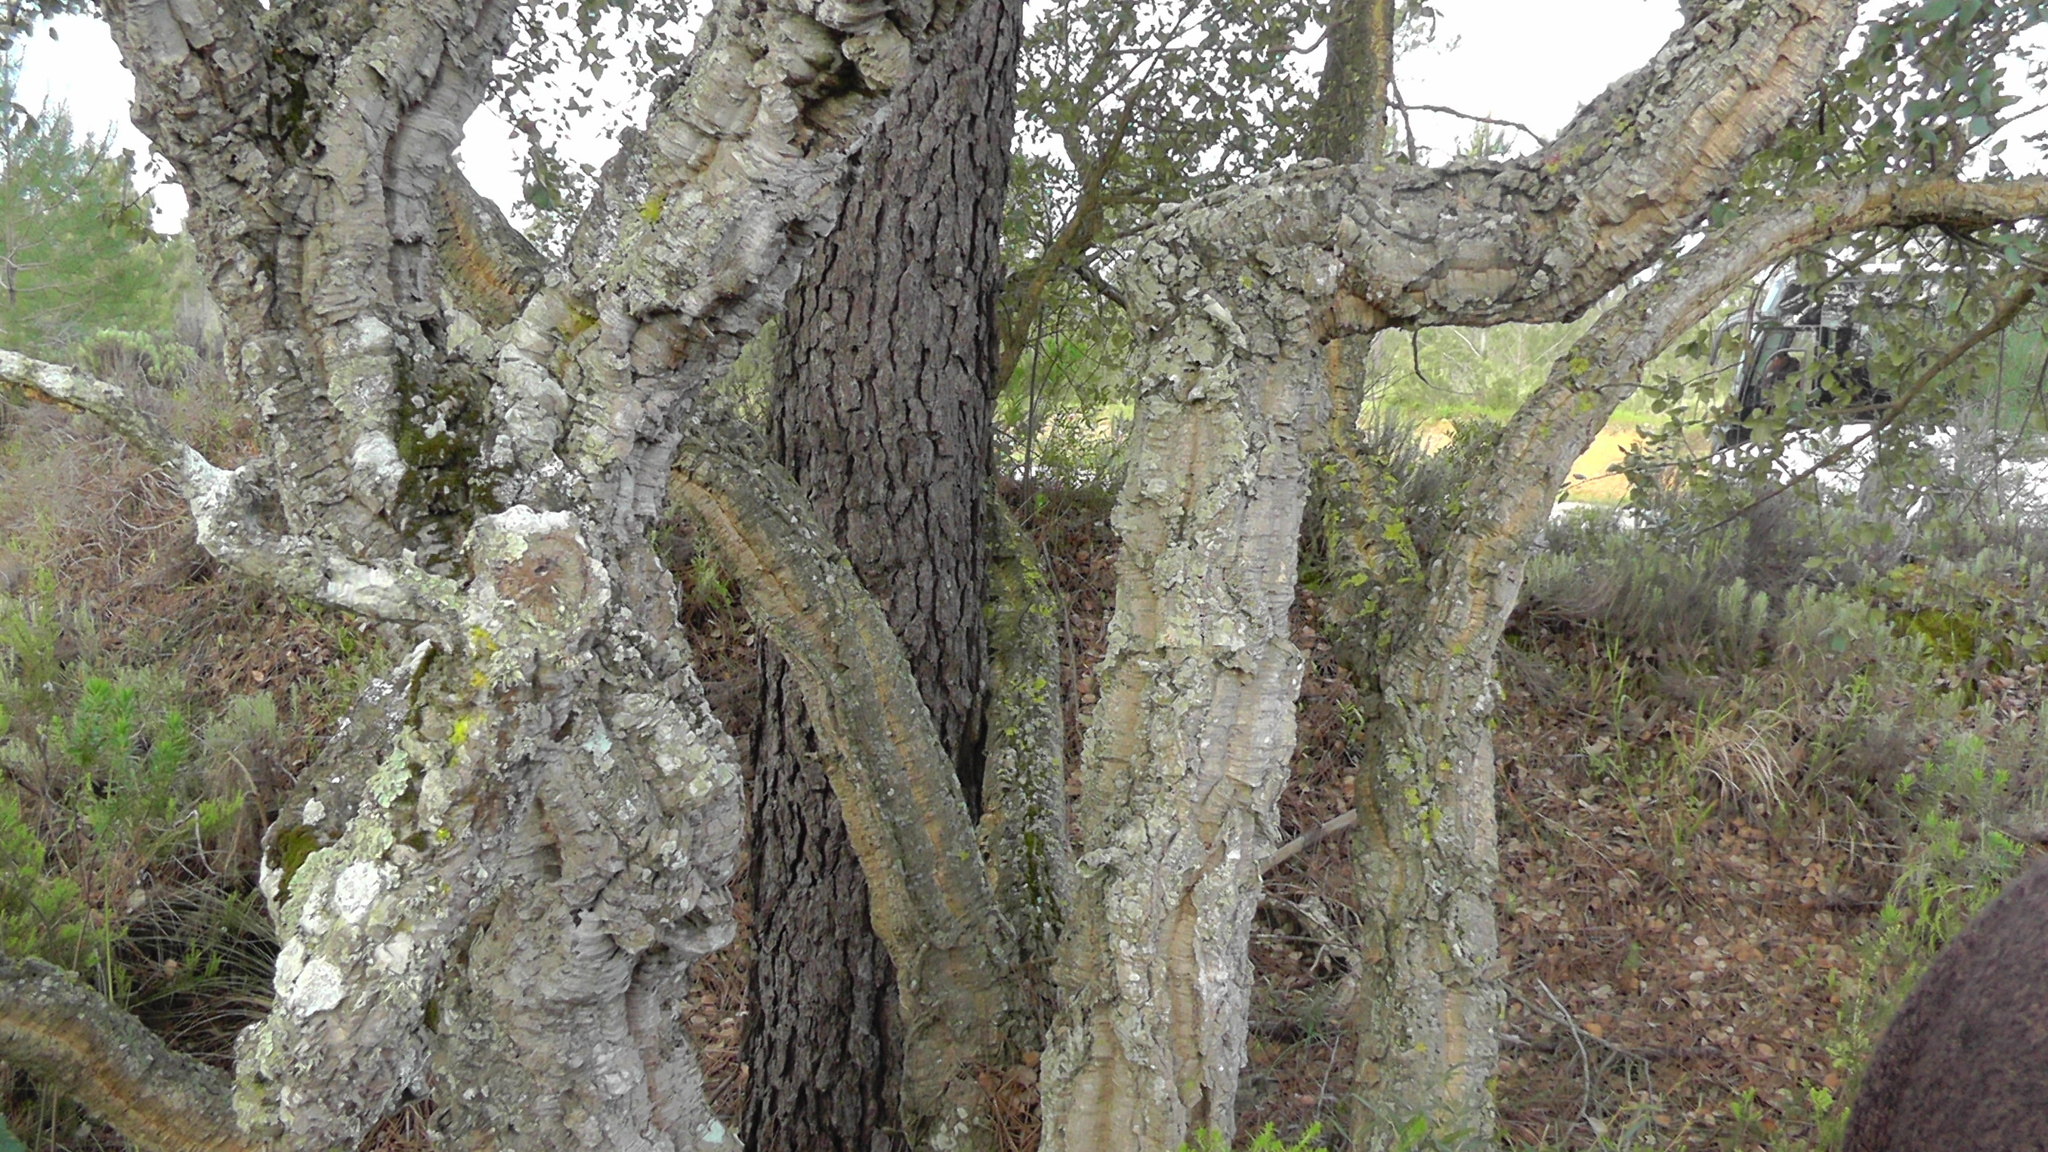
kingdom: Plantae
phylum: Tracheophyta
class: Magnoliopsida
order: Fagales
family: Fagaceae
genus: Quercus
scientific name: Quercus suber
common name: Cork oak
